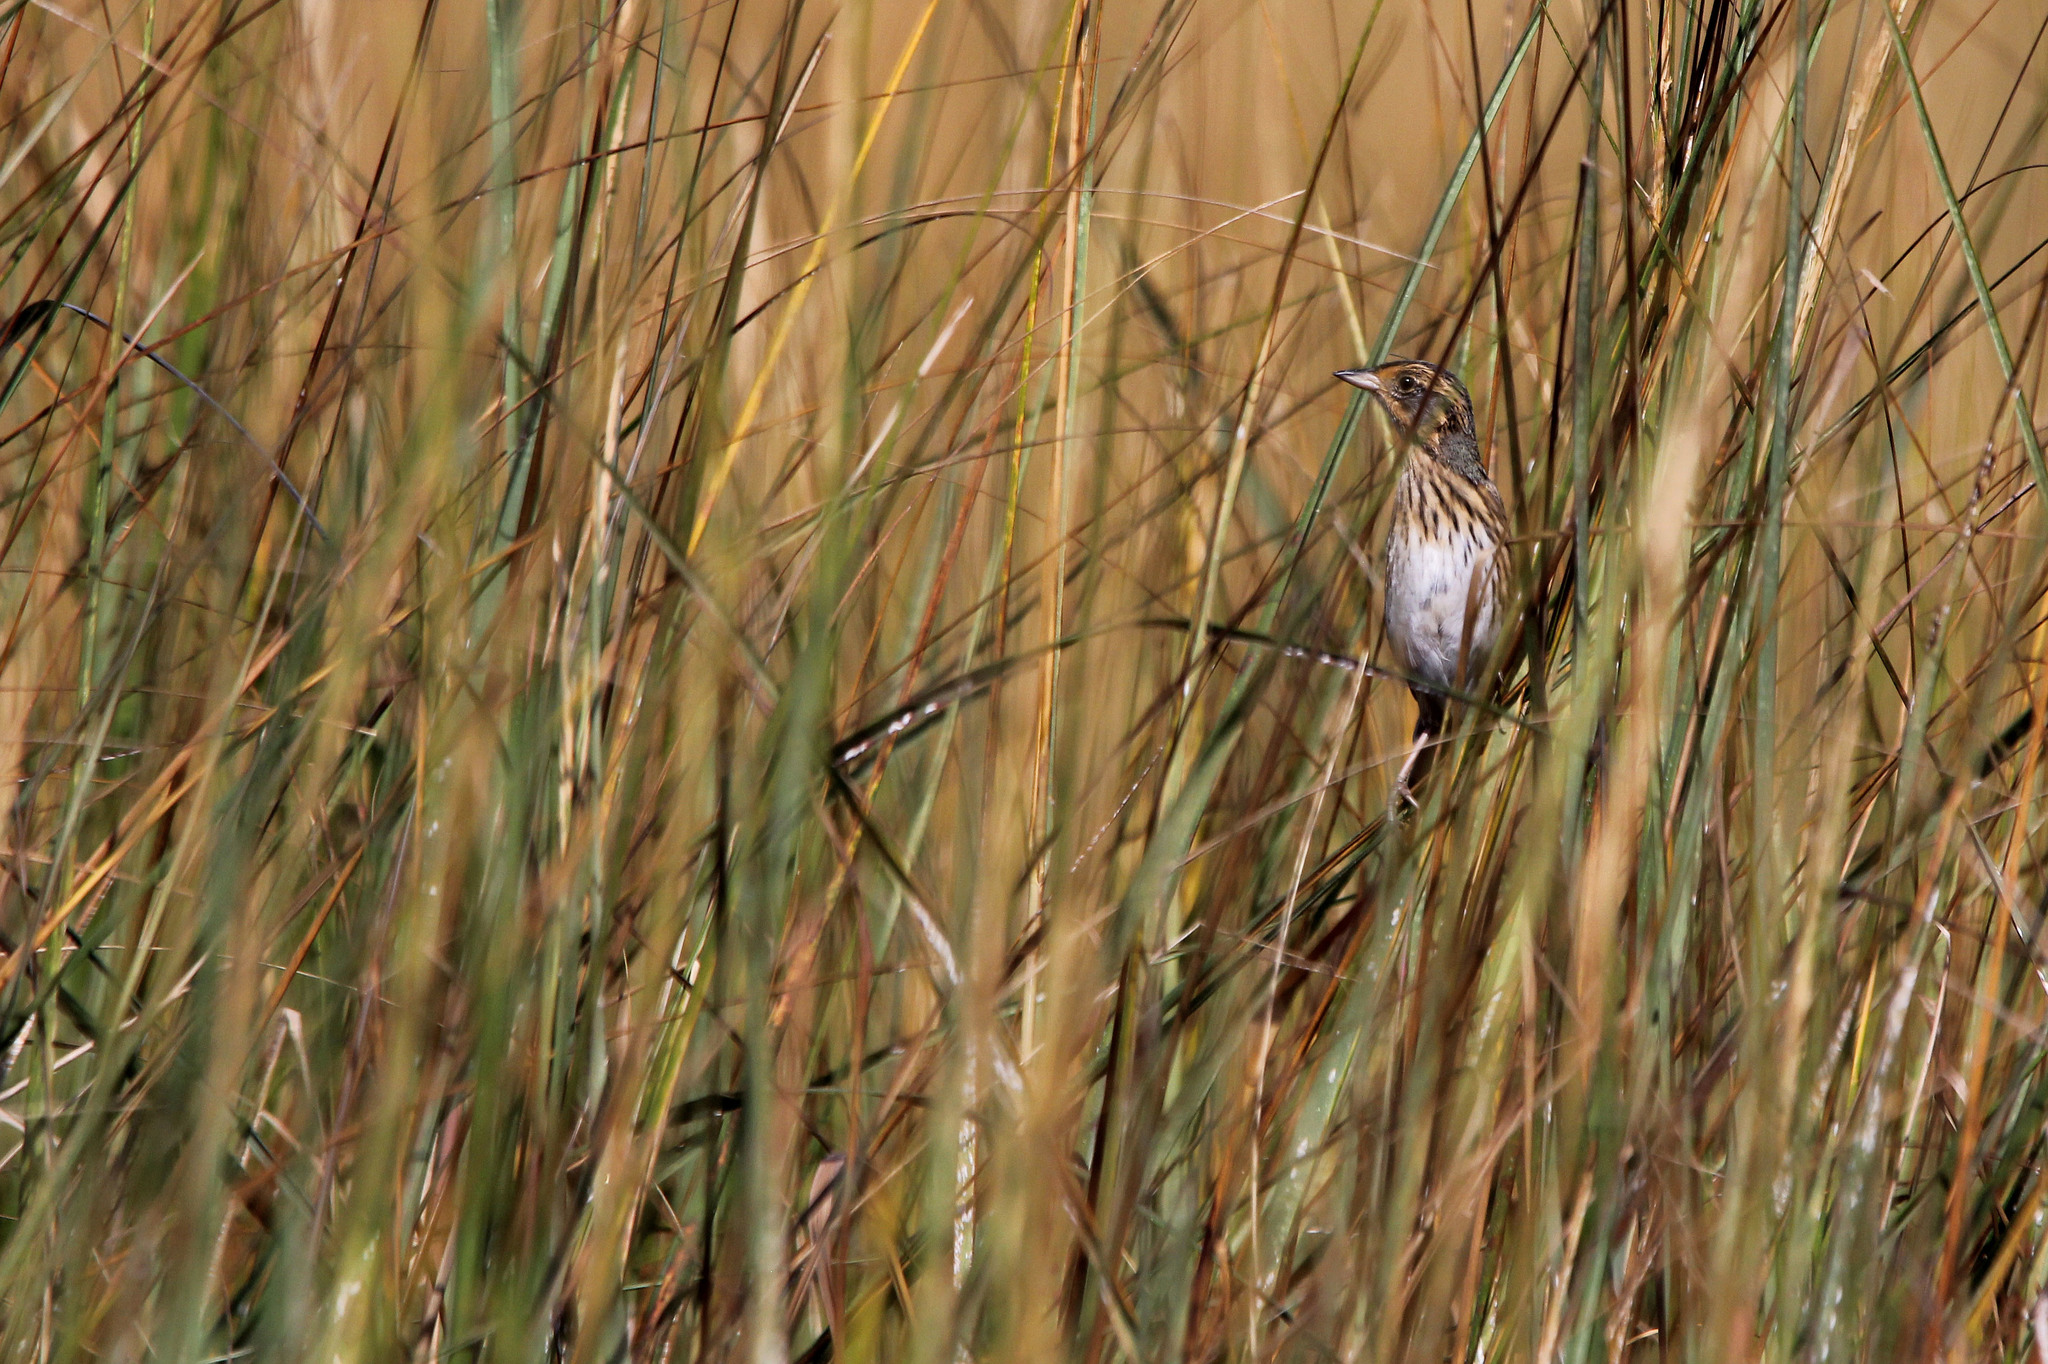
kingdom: Animalia
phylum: Chordata
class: Aves
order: Passeriformes
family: Passerellidae
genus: Ammospiza
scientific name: Ammospiza caudacuta
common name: Saltmarsh sparrow
